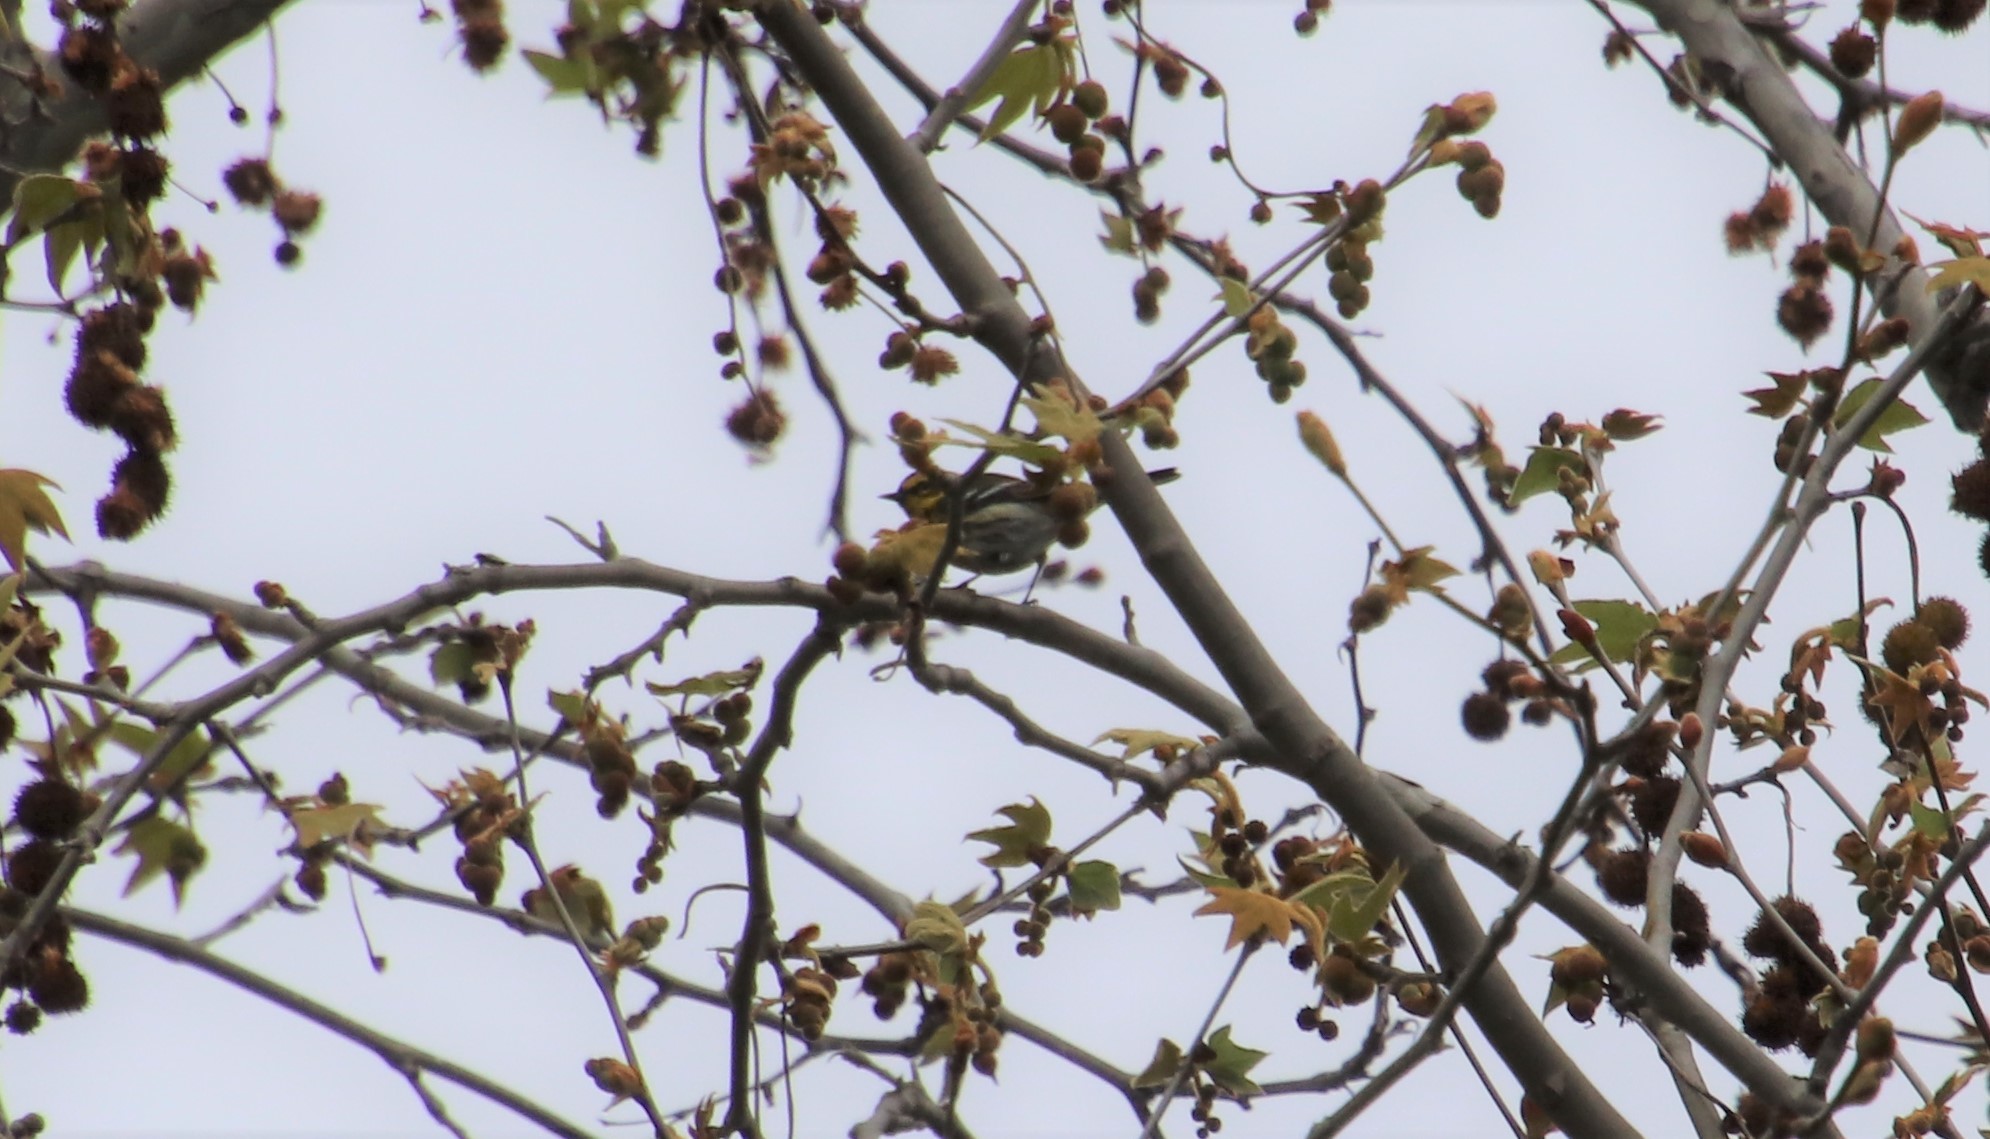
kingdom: Animalia
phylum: Chordata
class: Aves
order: Passeriformes
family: Parulidae
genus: Setophaga
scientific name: Setophaga townsendi
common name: Townsend's warbler
